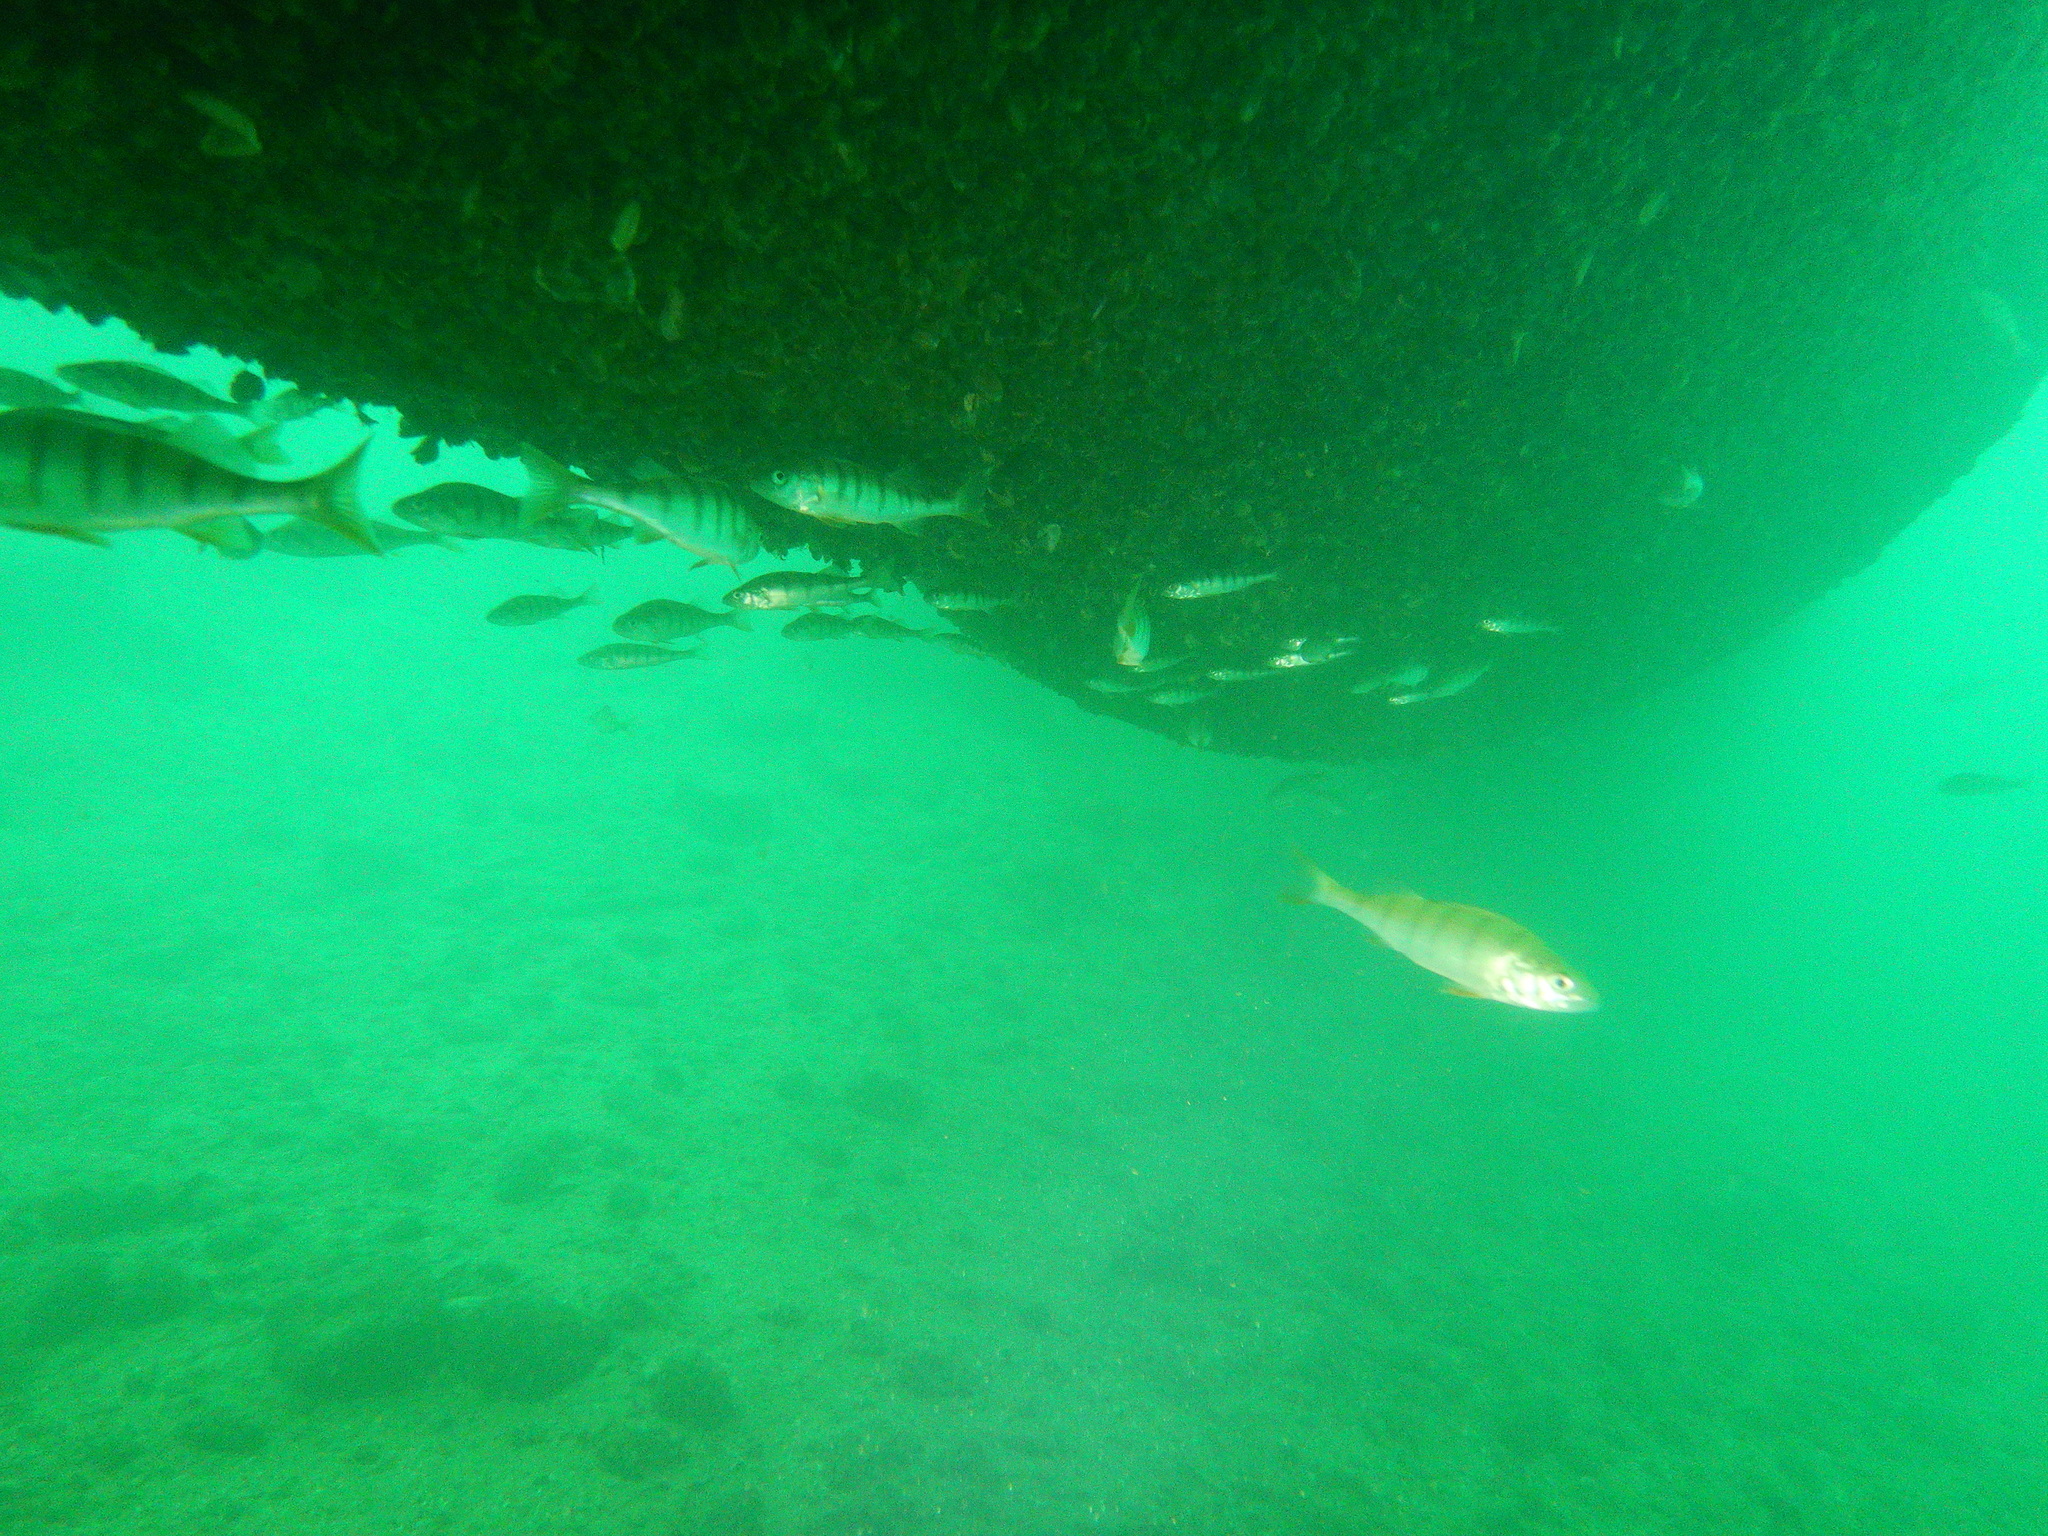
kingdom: Animalia
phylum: Chordata
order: Perciformes
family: Percidae
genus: Perca
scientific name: Perca fluviatilis
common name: Perch
